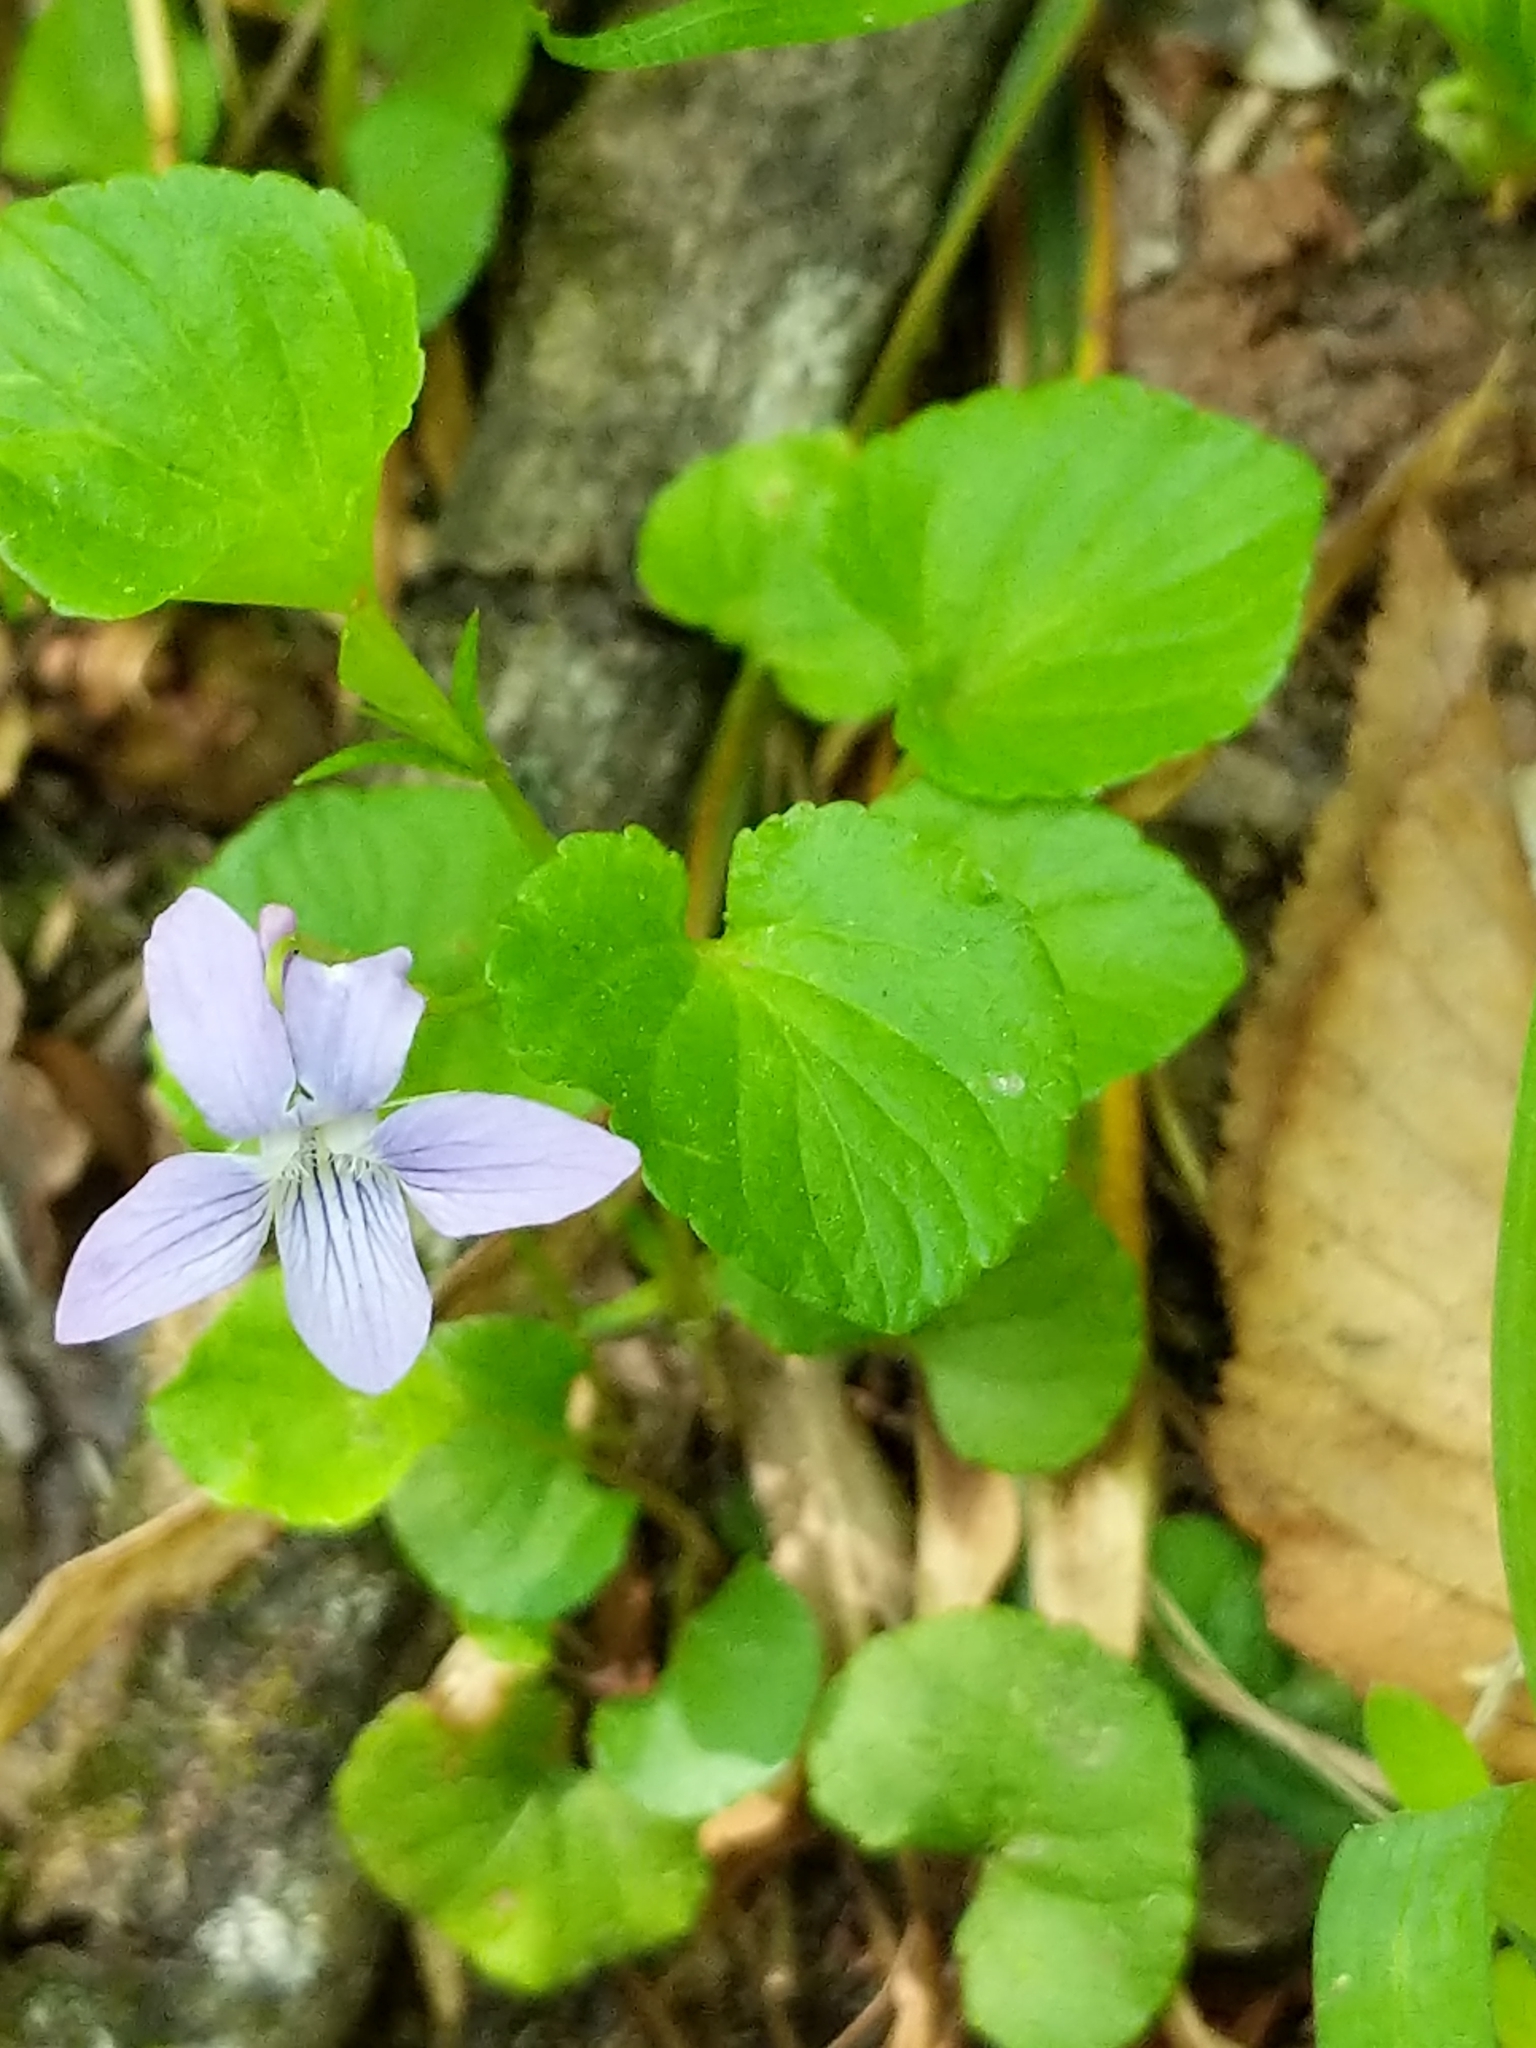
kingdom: Plantae
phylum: Tracheophyta
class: Magnoliopsida
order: Malpighiales
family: Violaceae
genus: Viola
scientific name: Viola labradorica
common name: Labrador violet
